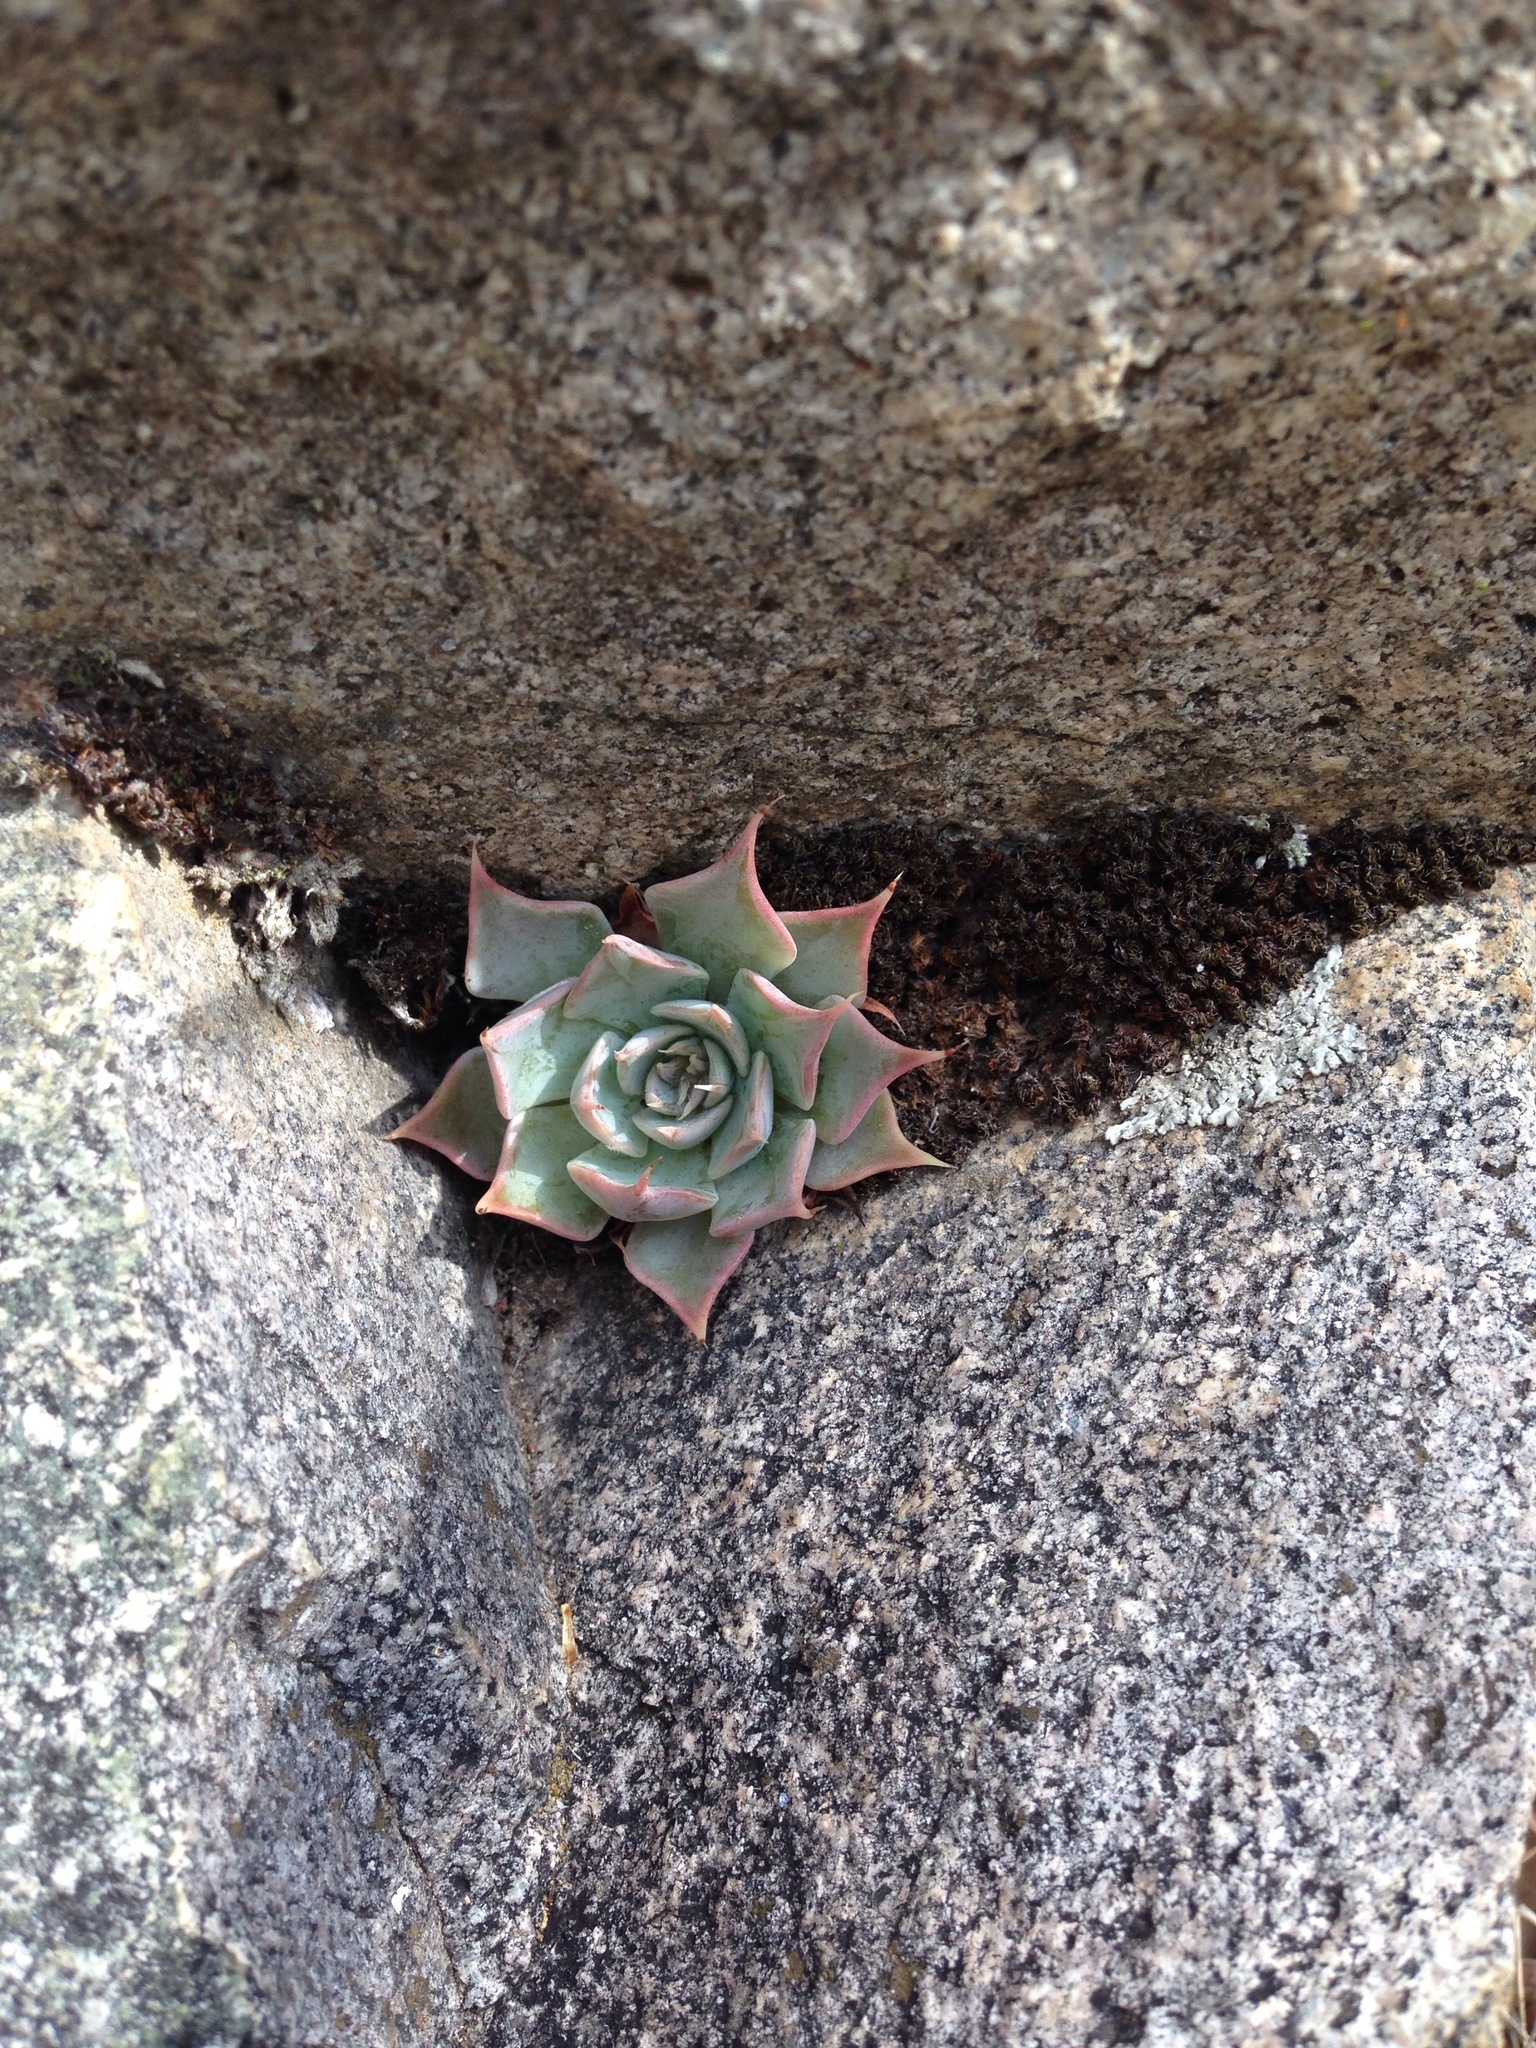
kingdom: Plantae
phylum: Tracheophyta
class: Magnoliopsida
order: Saxifragales
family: Crassulaceae
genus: Graptopetalum
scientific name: Graptopetalum bartramii
